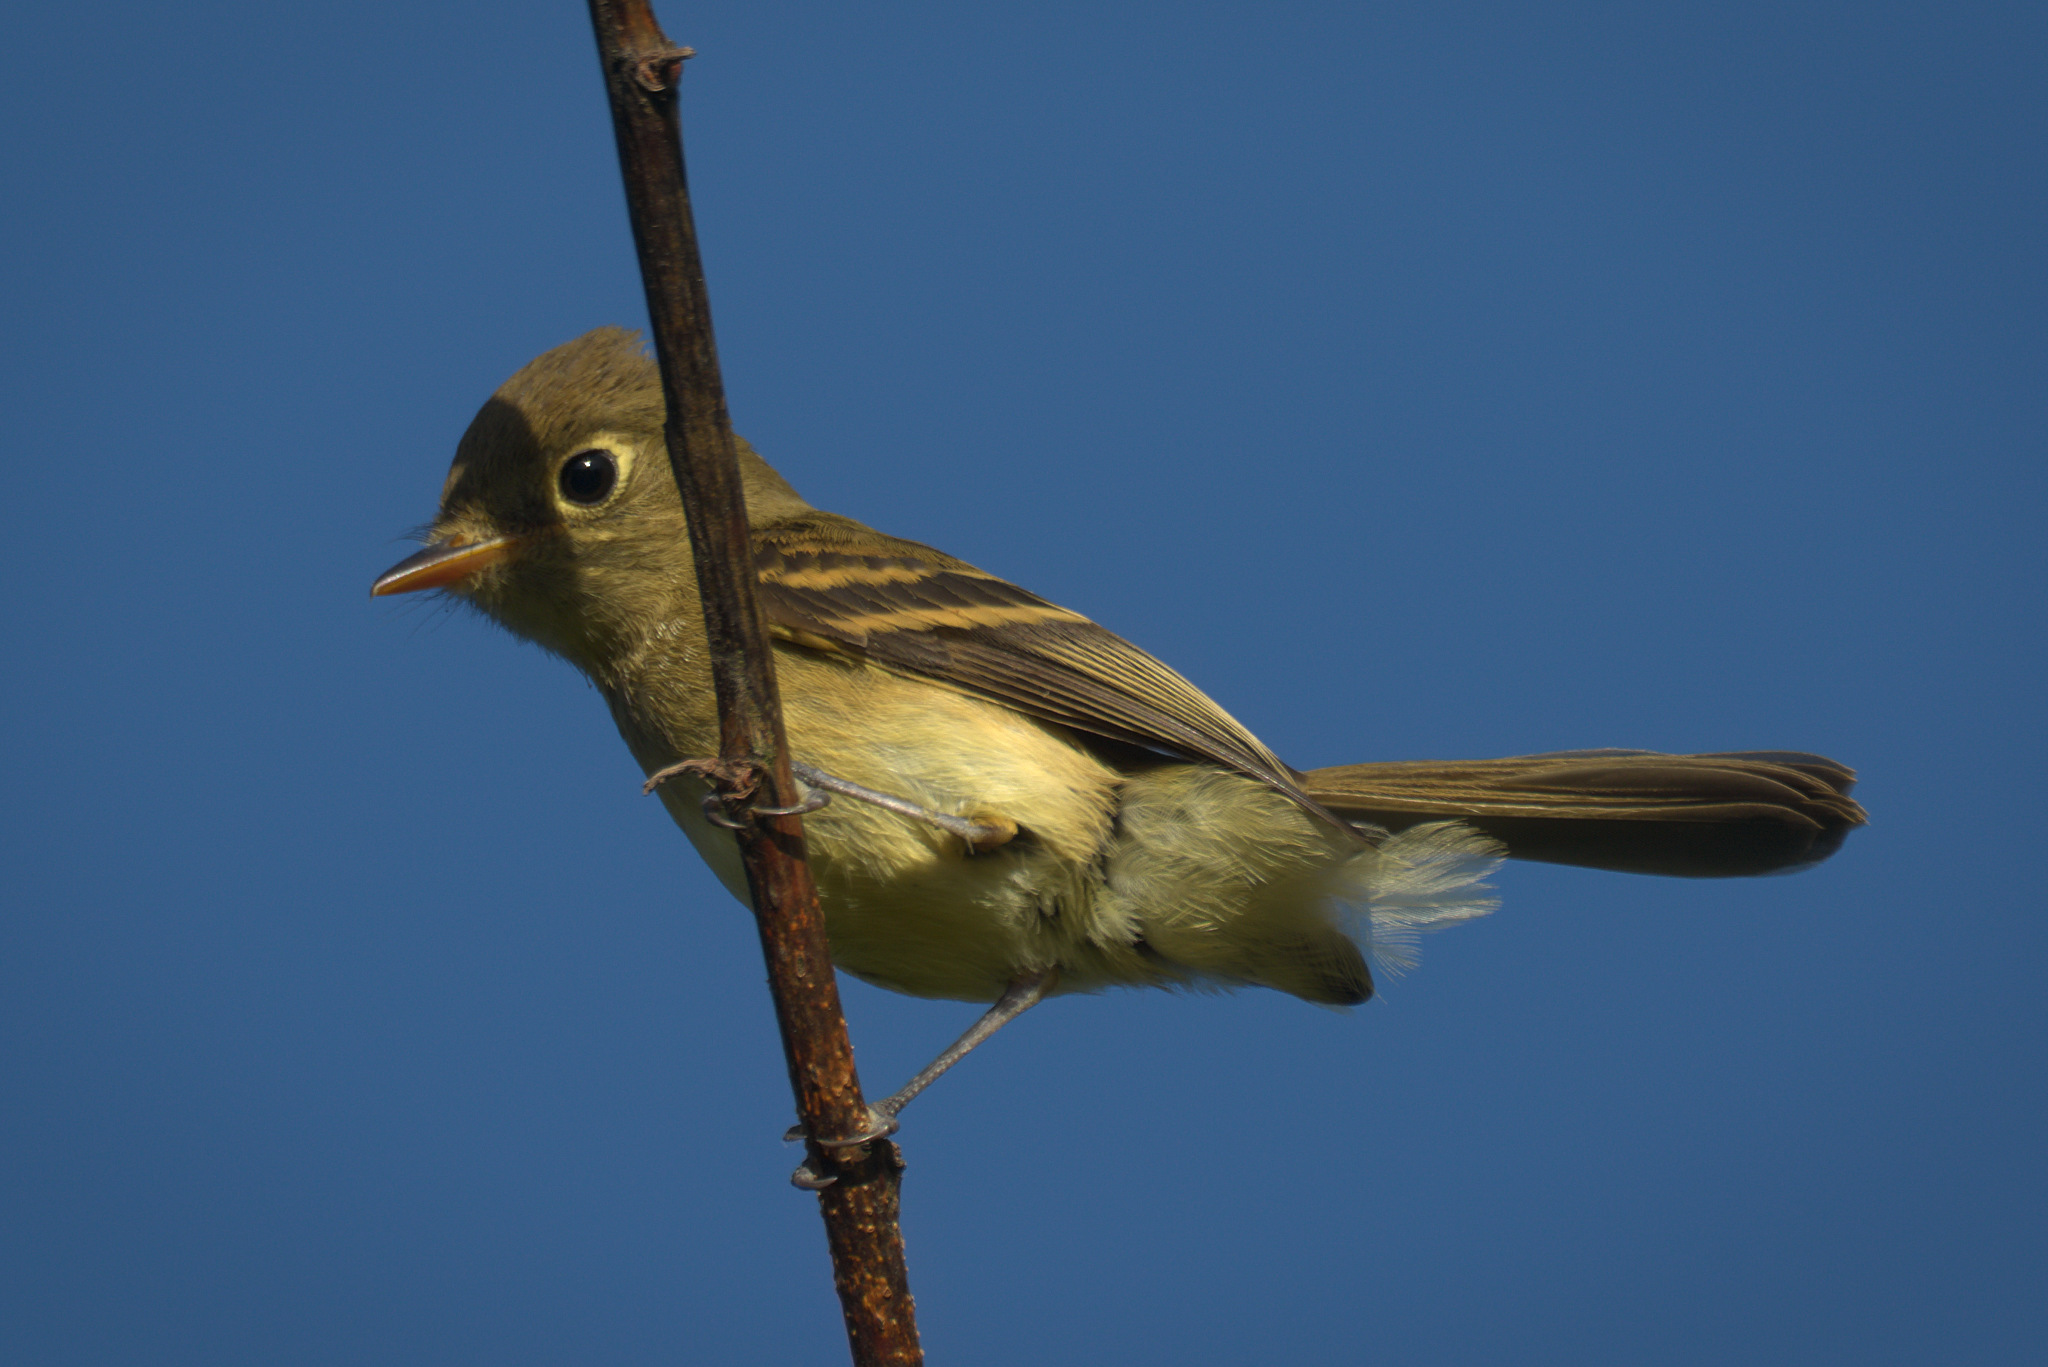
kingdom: Animalia
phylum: Chordata
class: Aves
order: Passeriformes
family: Tyrannidae
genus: Empidonax
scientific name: Empidonax difficilis
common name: Pacific-slope flycatcher
